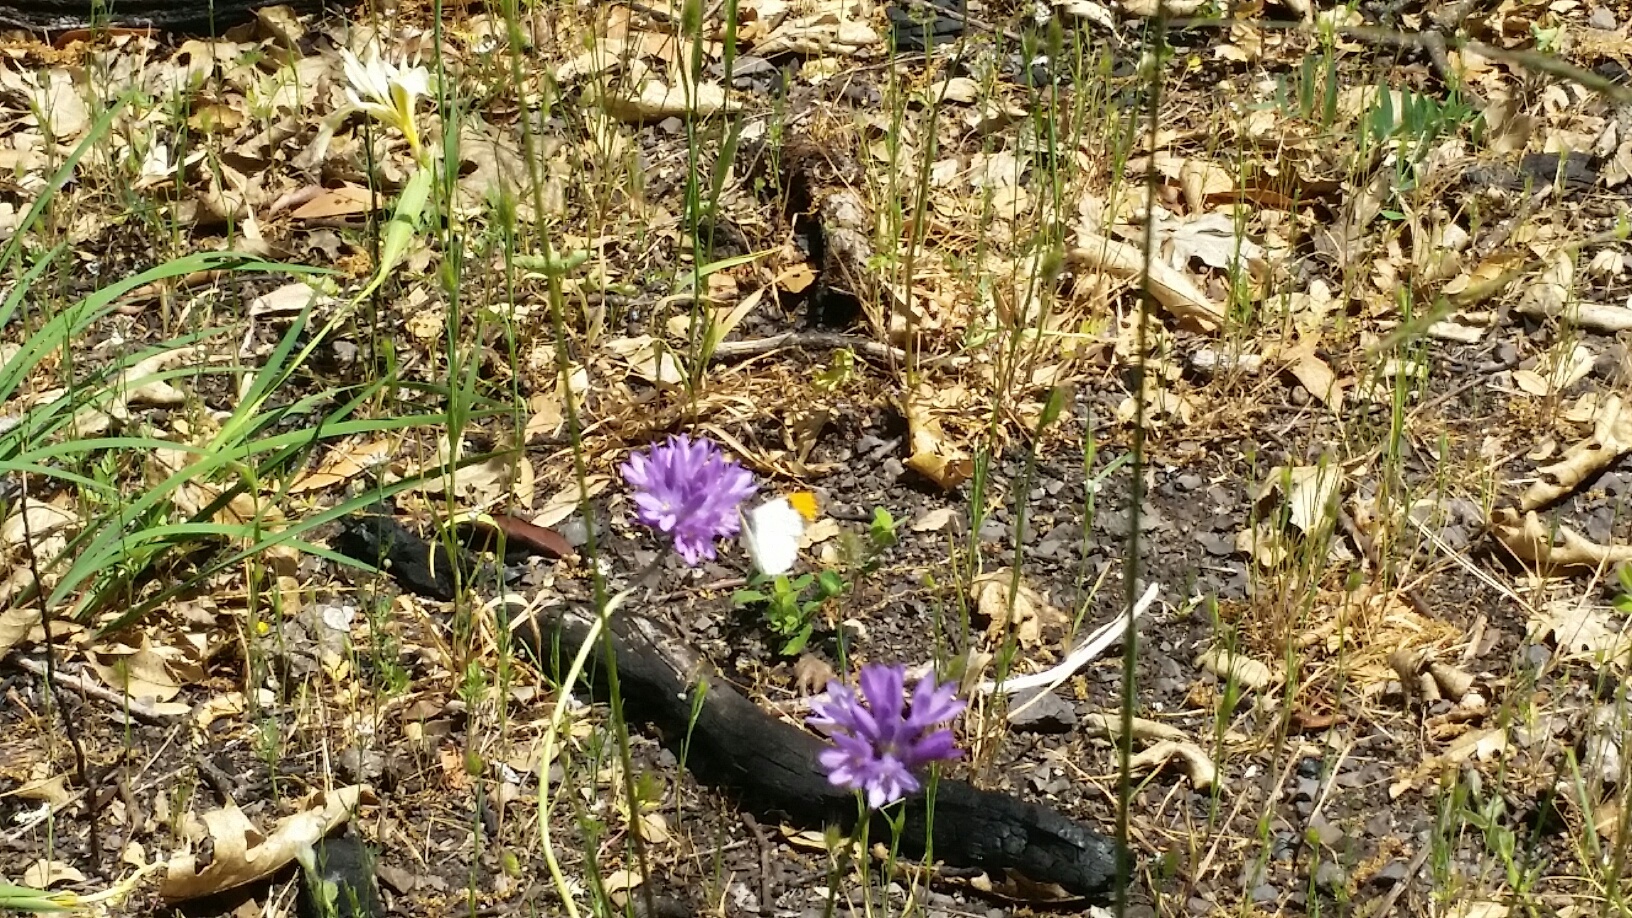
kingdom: Animalia
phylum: Arthropoda
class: Insecta
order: Lepidoptera
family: Pieridae
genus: Anthocharis
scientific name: Anthocharis sara
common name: Sara's orangetip
